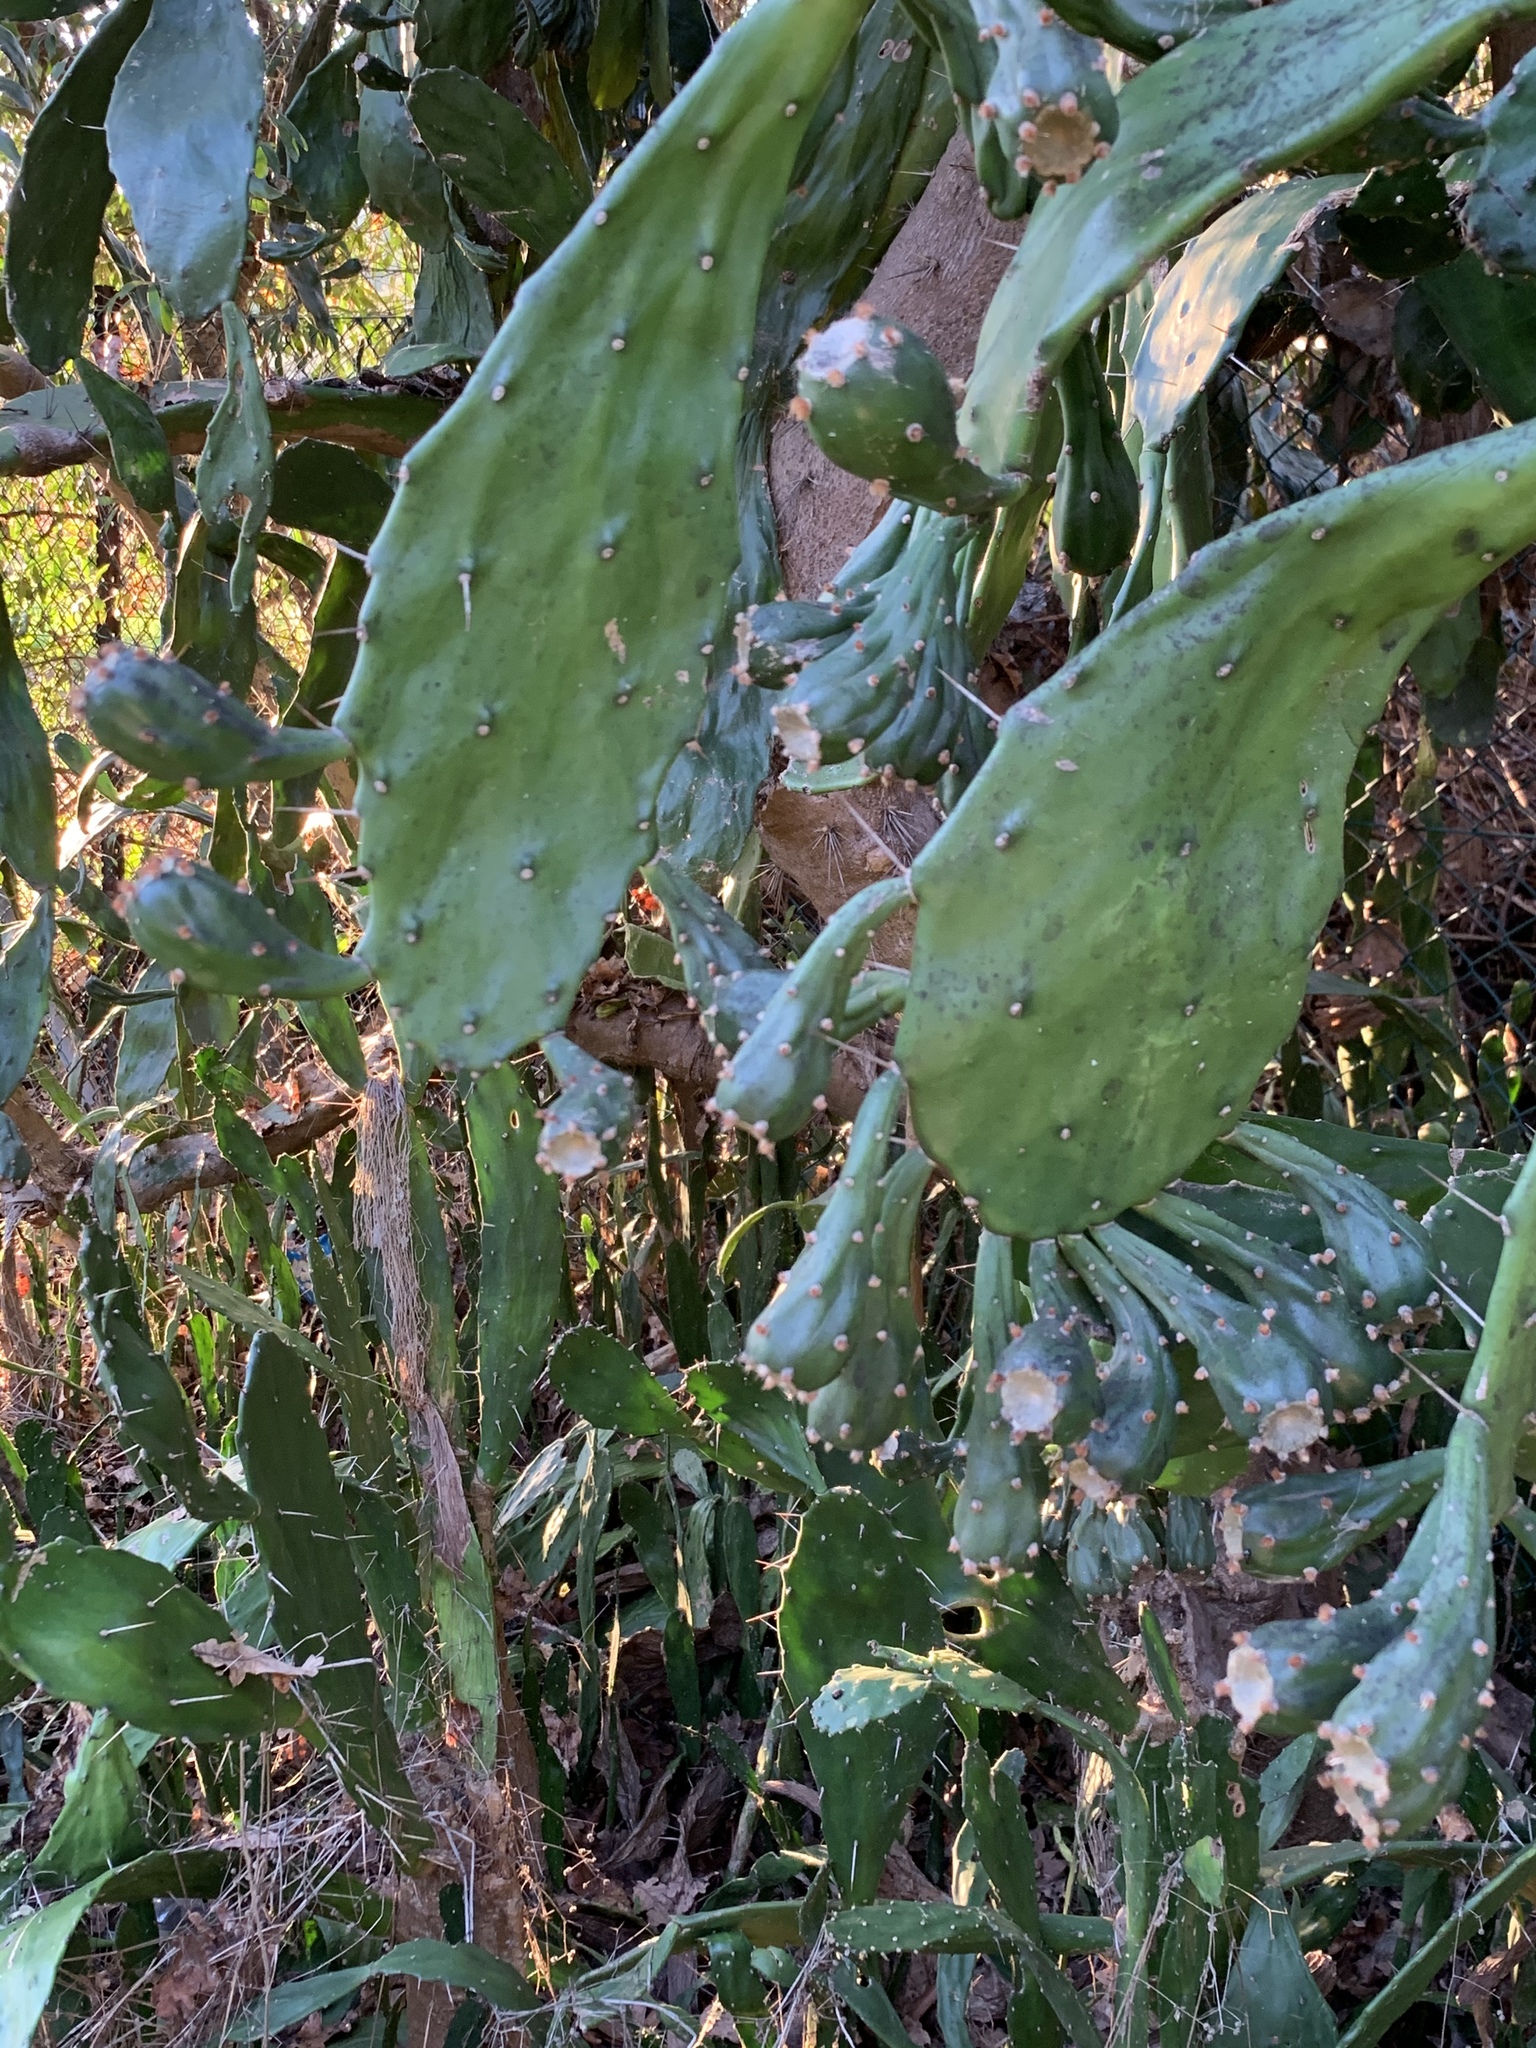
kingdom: Plantae
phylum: Tracheophyta
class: Magnoliopsida
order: Caryophyllales
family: Cactaceae
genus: Opuntia
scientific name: Opuntia monacantha
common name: Common pricklypear
